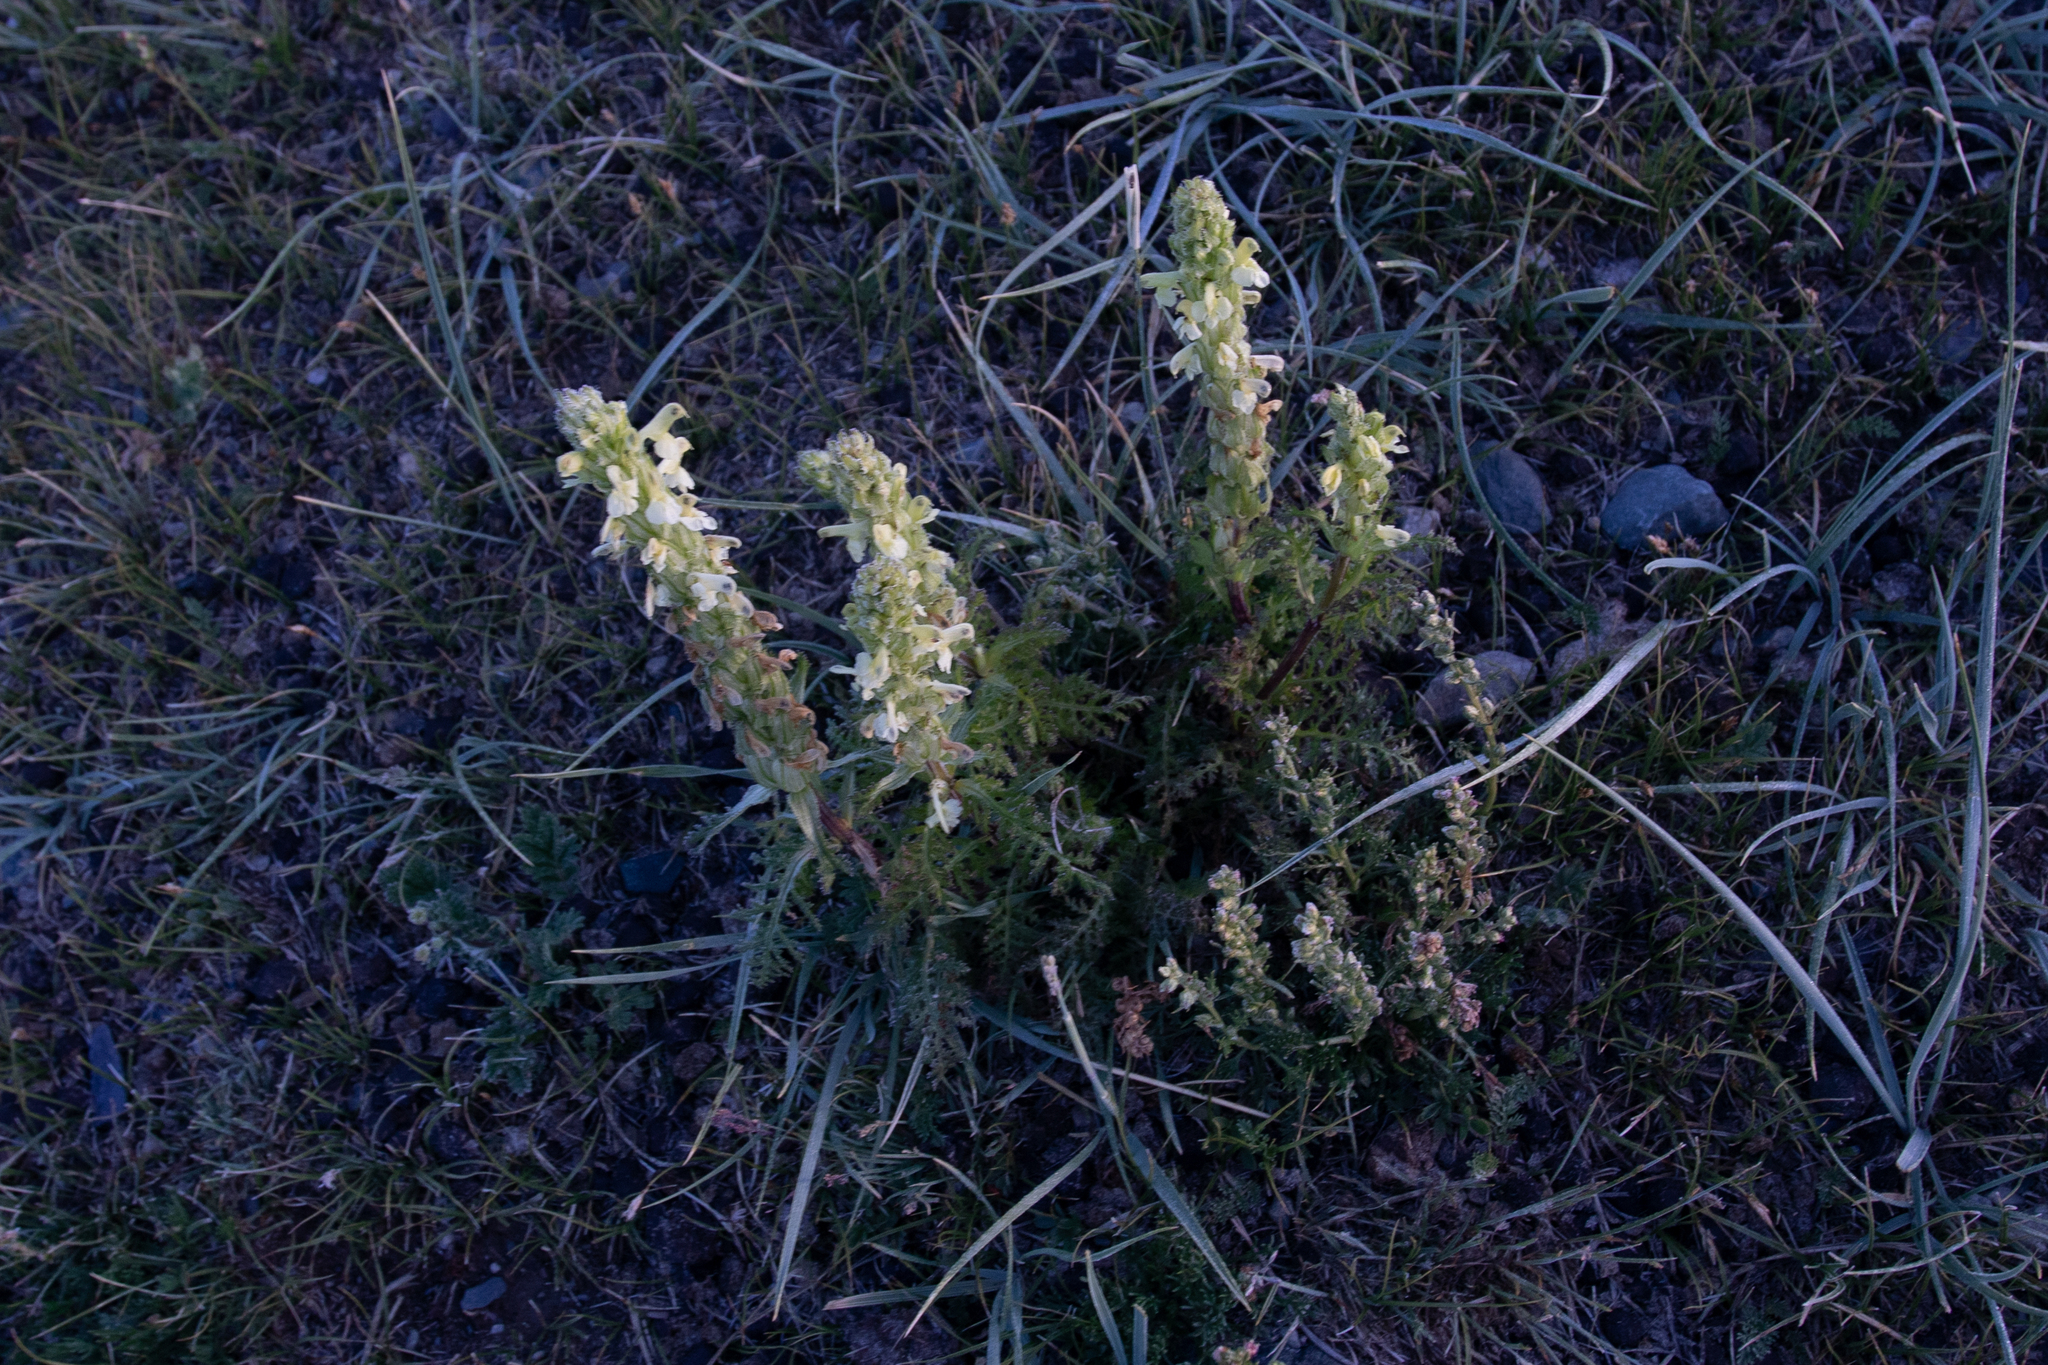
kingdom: Plantae
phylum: Tracheophyta
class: Magnoliopsida
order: Lamiales
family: Orobanchaceae
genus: Pedicularis
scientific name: Pedicularis abrotanifolia
